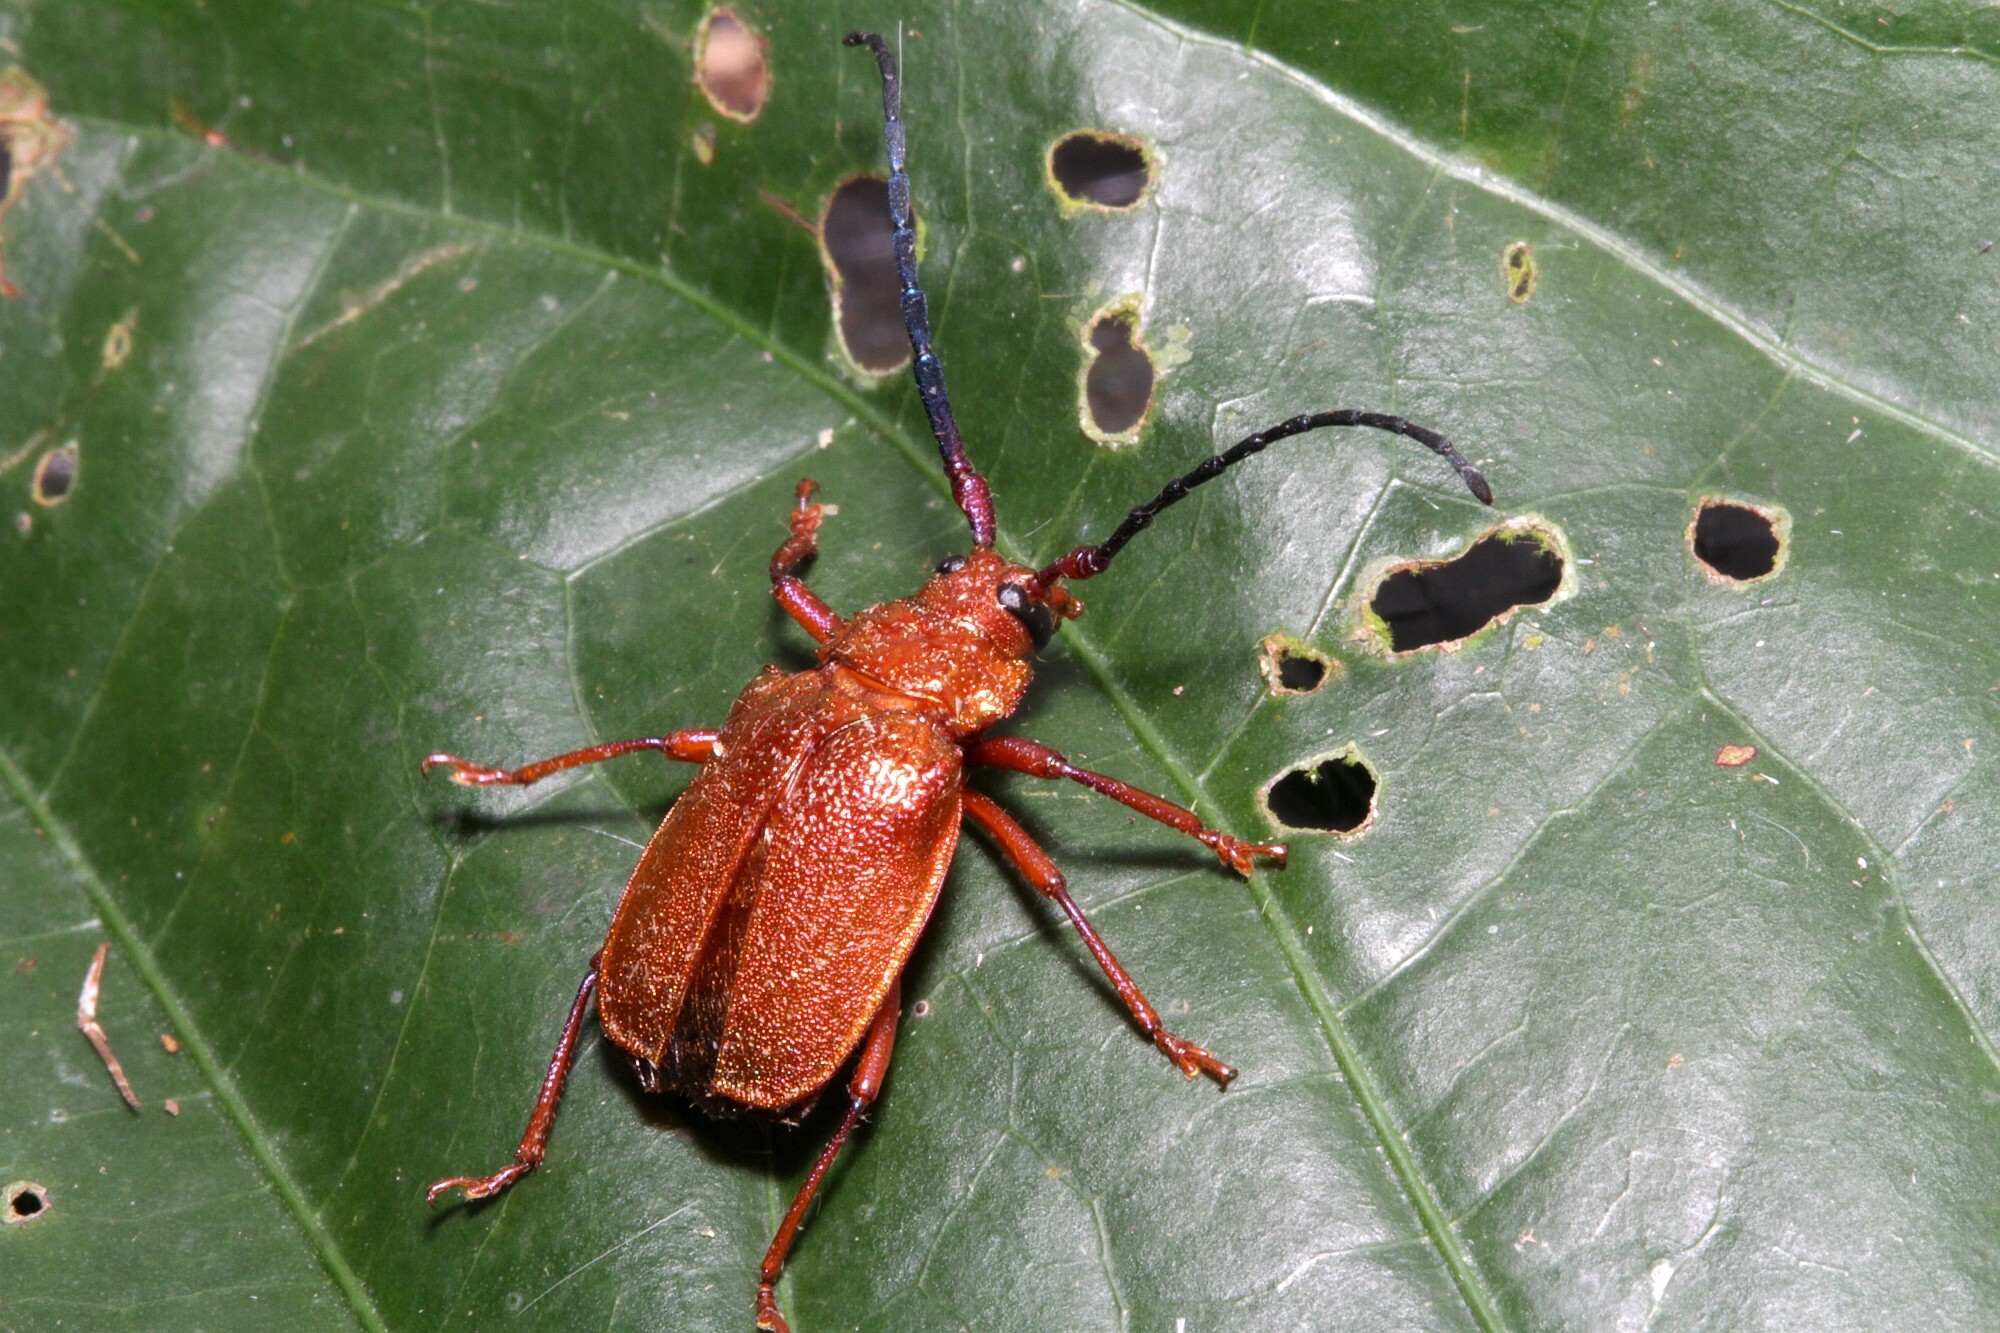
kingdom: Animalia
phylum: Arthropoda
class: Insecta
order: Coleoptera
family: Cerambycidae
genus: Hileolaspis
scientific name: Hileolaspis auratus
